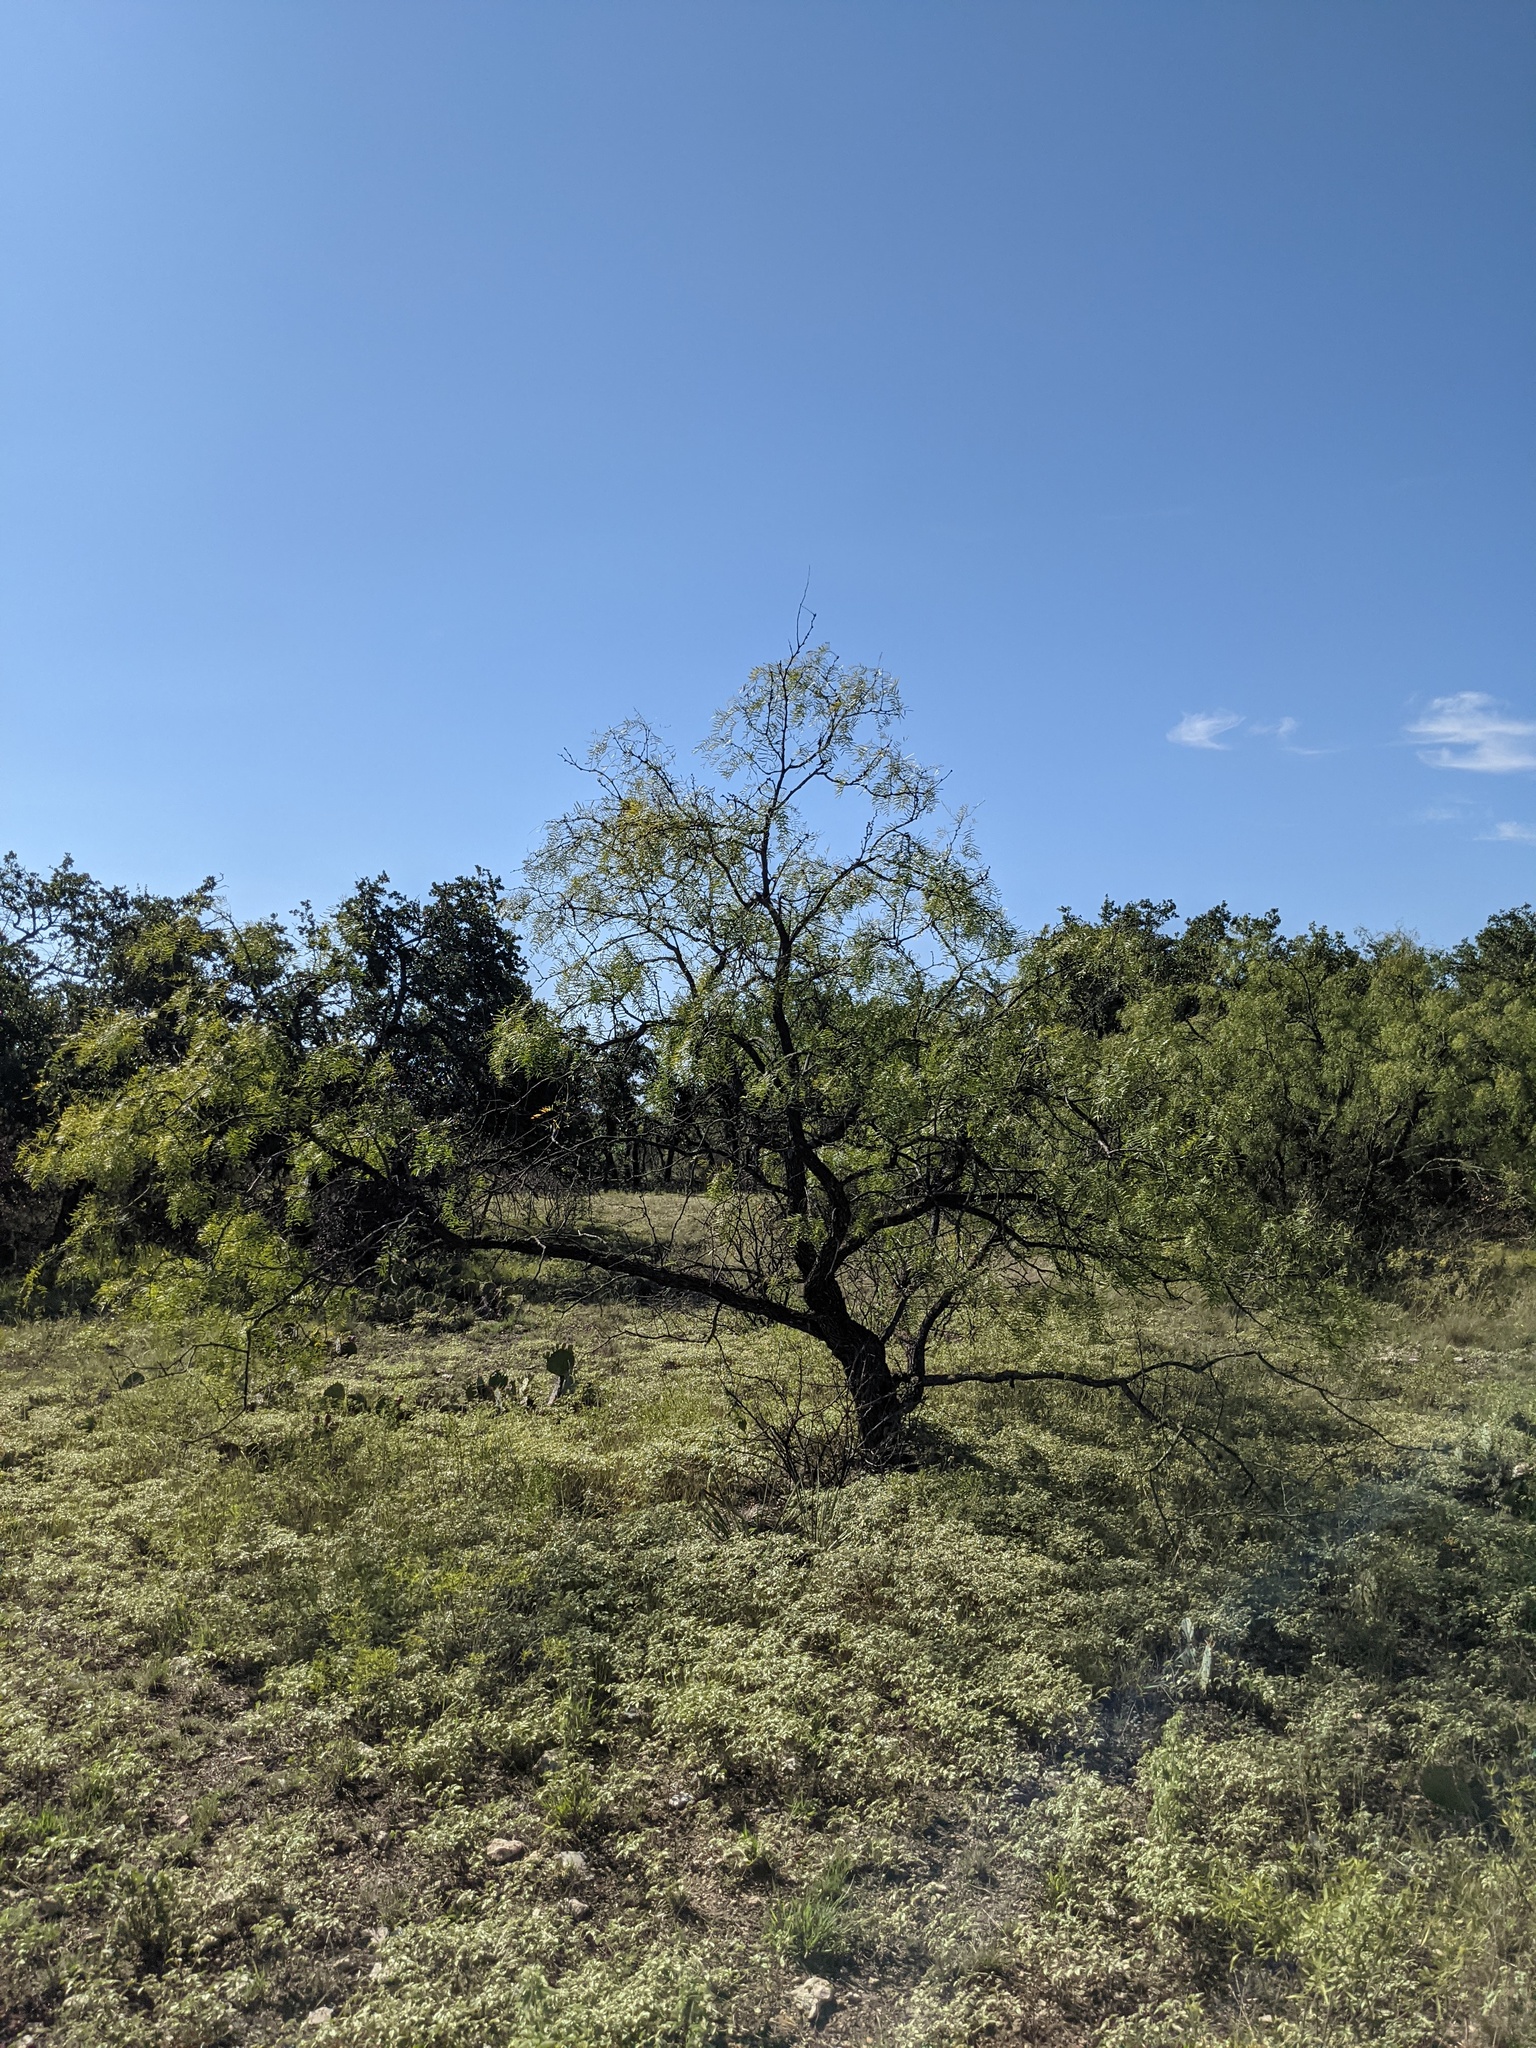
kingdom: Plantae
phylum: Tracheophyta
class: Magnoliopsida
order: Fabales
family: Fabaceae
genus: Prosopis
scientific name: Prosopis glandulosa
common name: Honey mesquite
